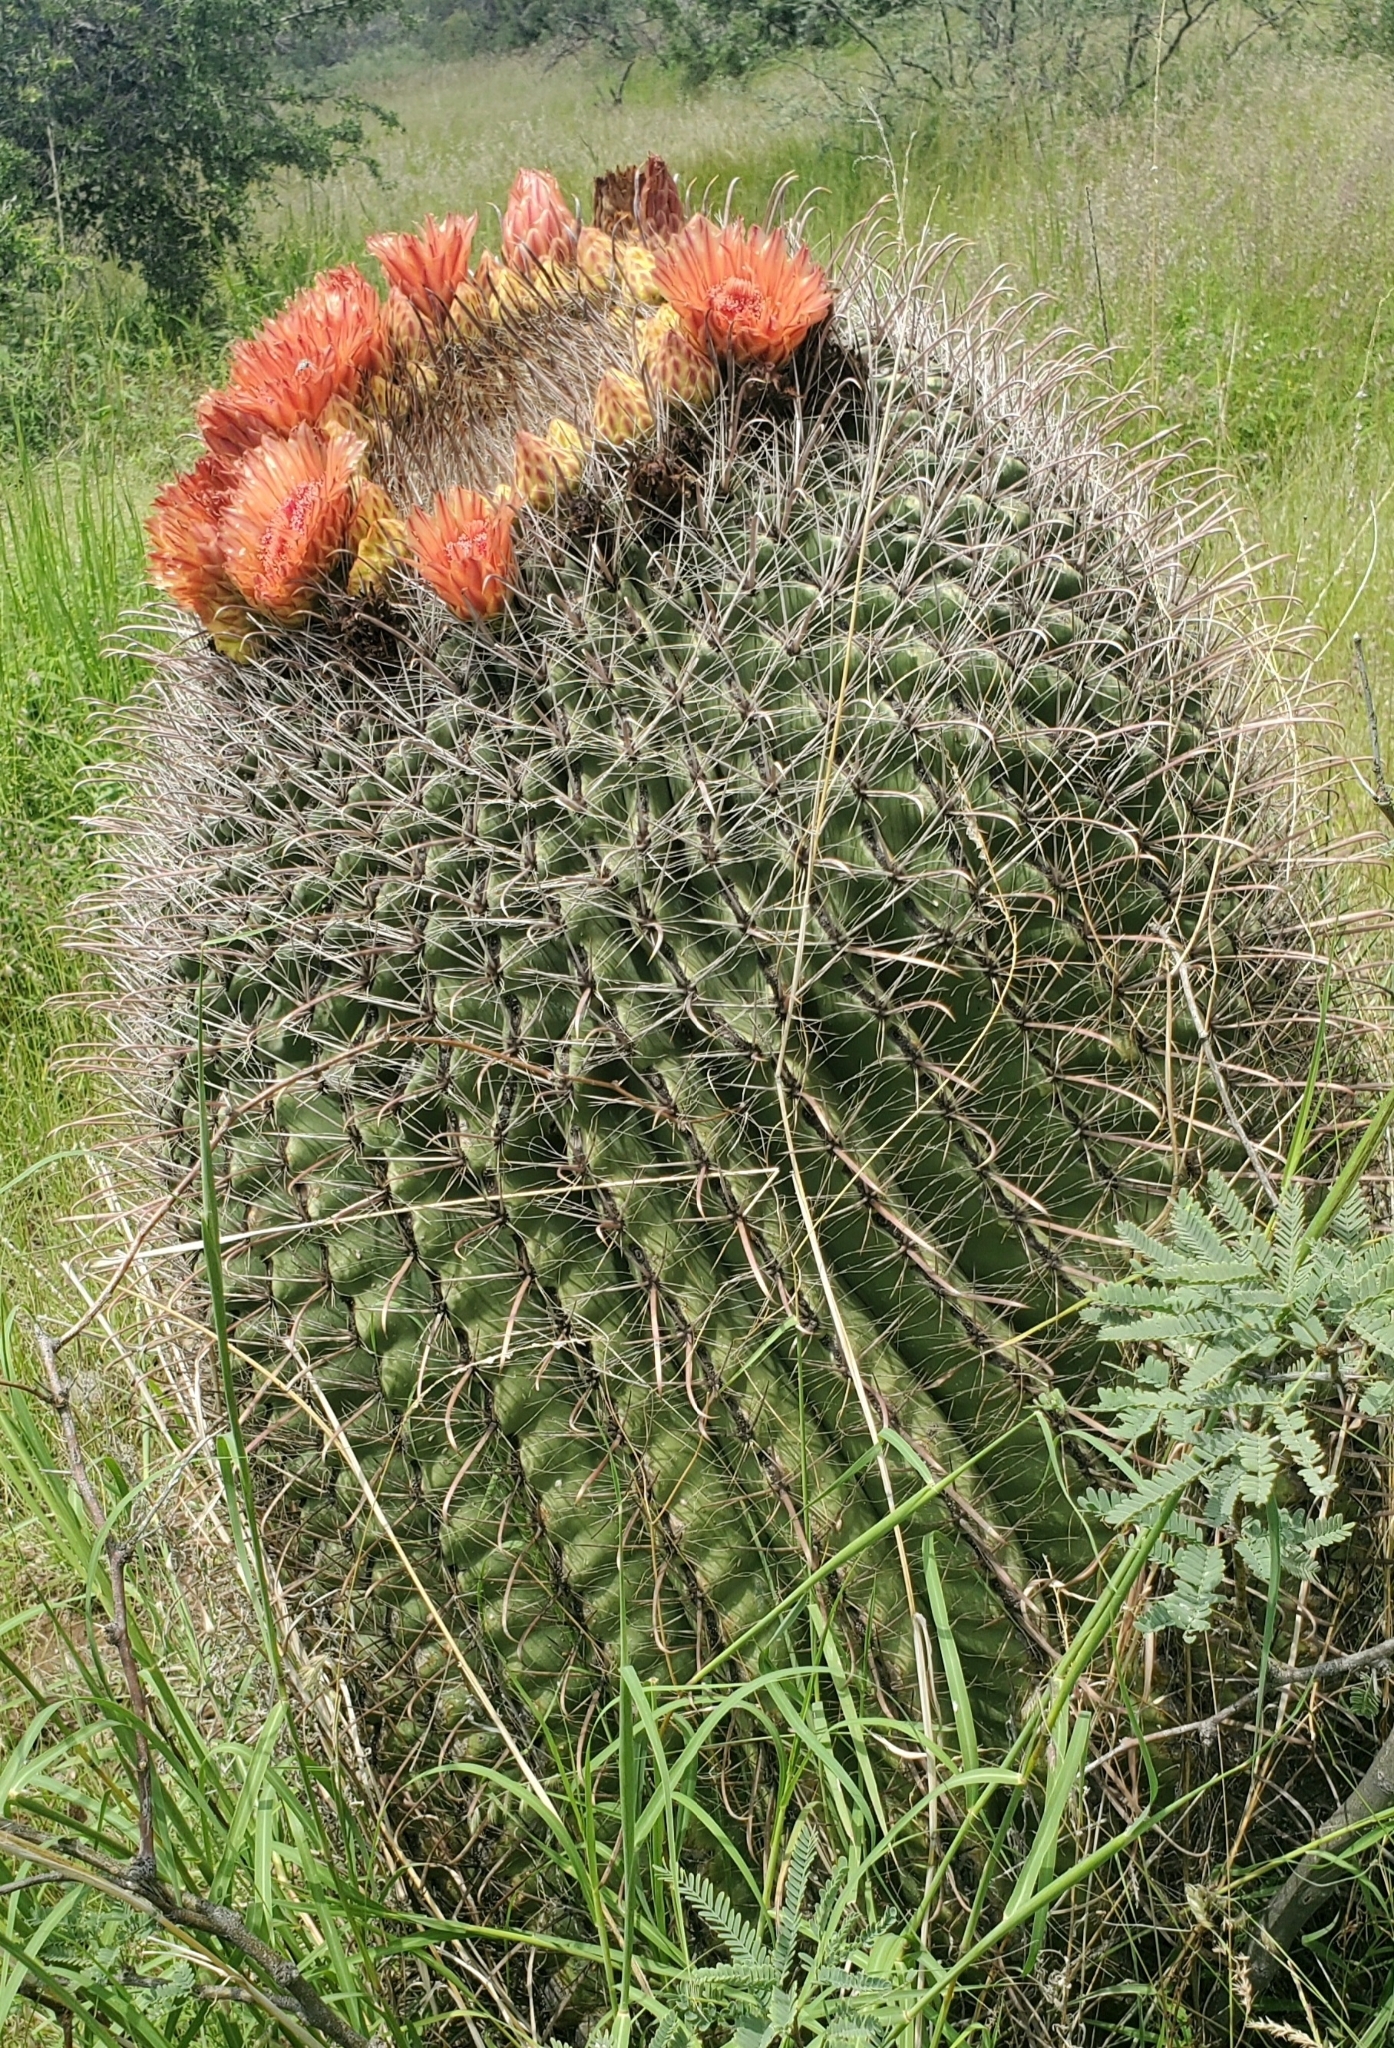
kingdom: Plantae
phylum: Tracheophyta
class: Magnoliopsida
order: Caryophyllales
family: Cactaceae
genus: Ferocactus
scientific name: Ferocactus wislizeni
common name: Candy barrel cactus
